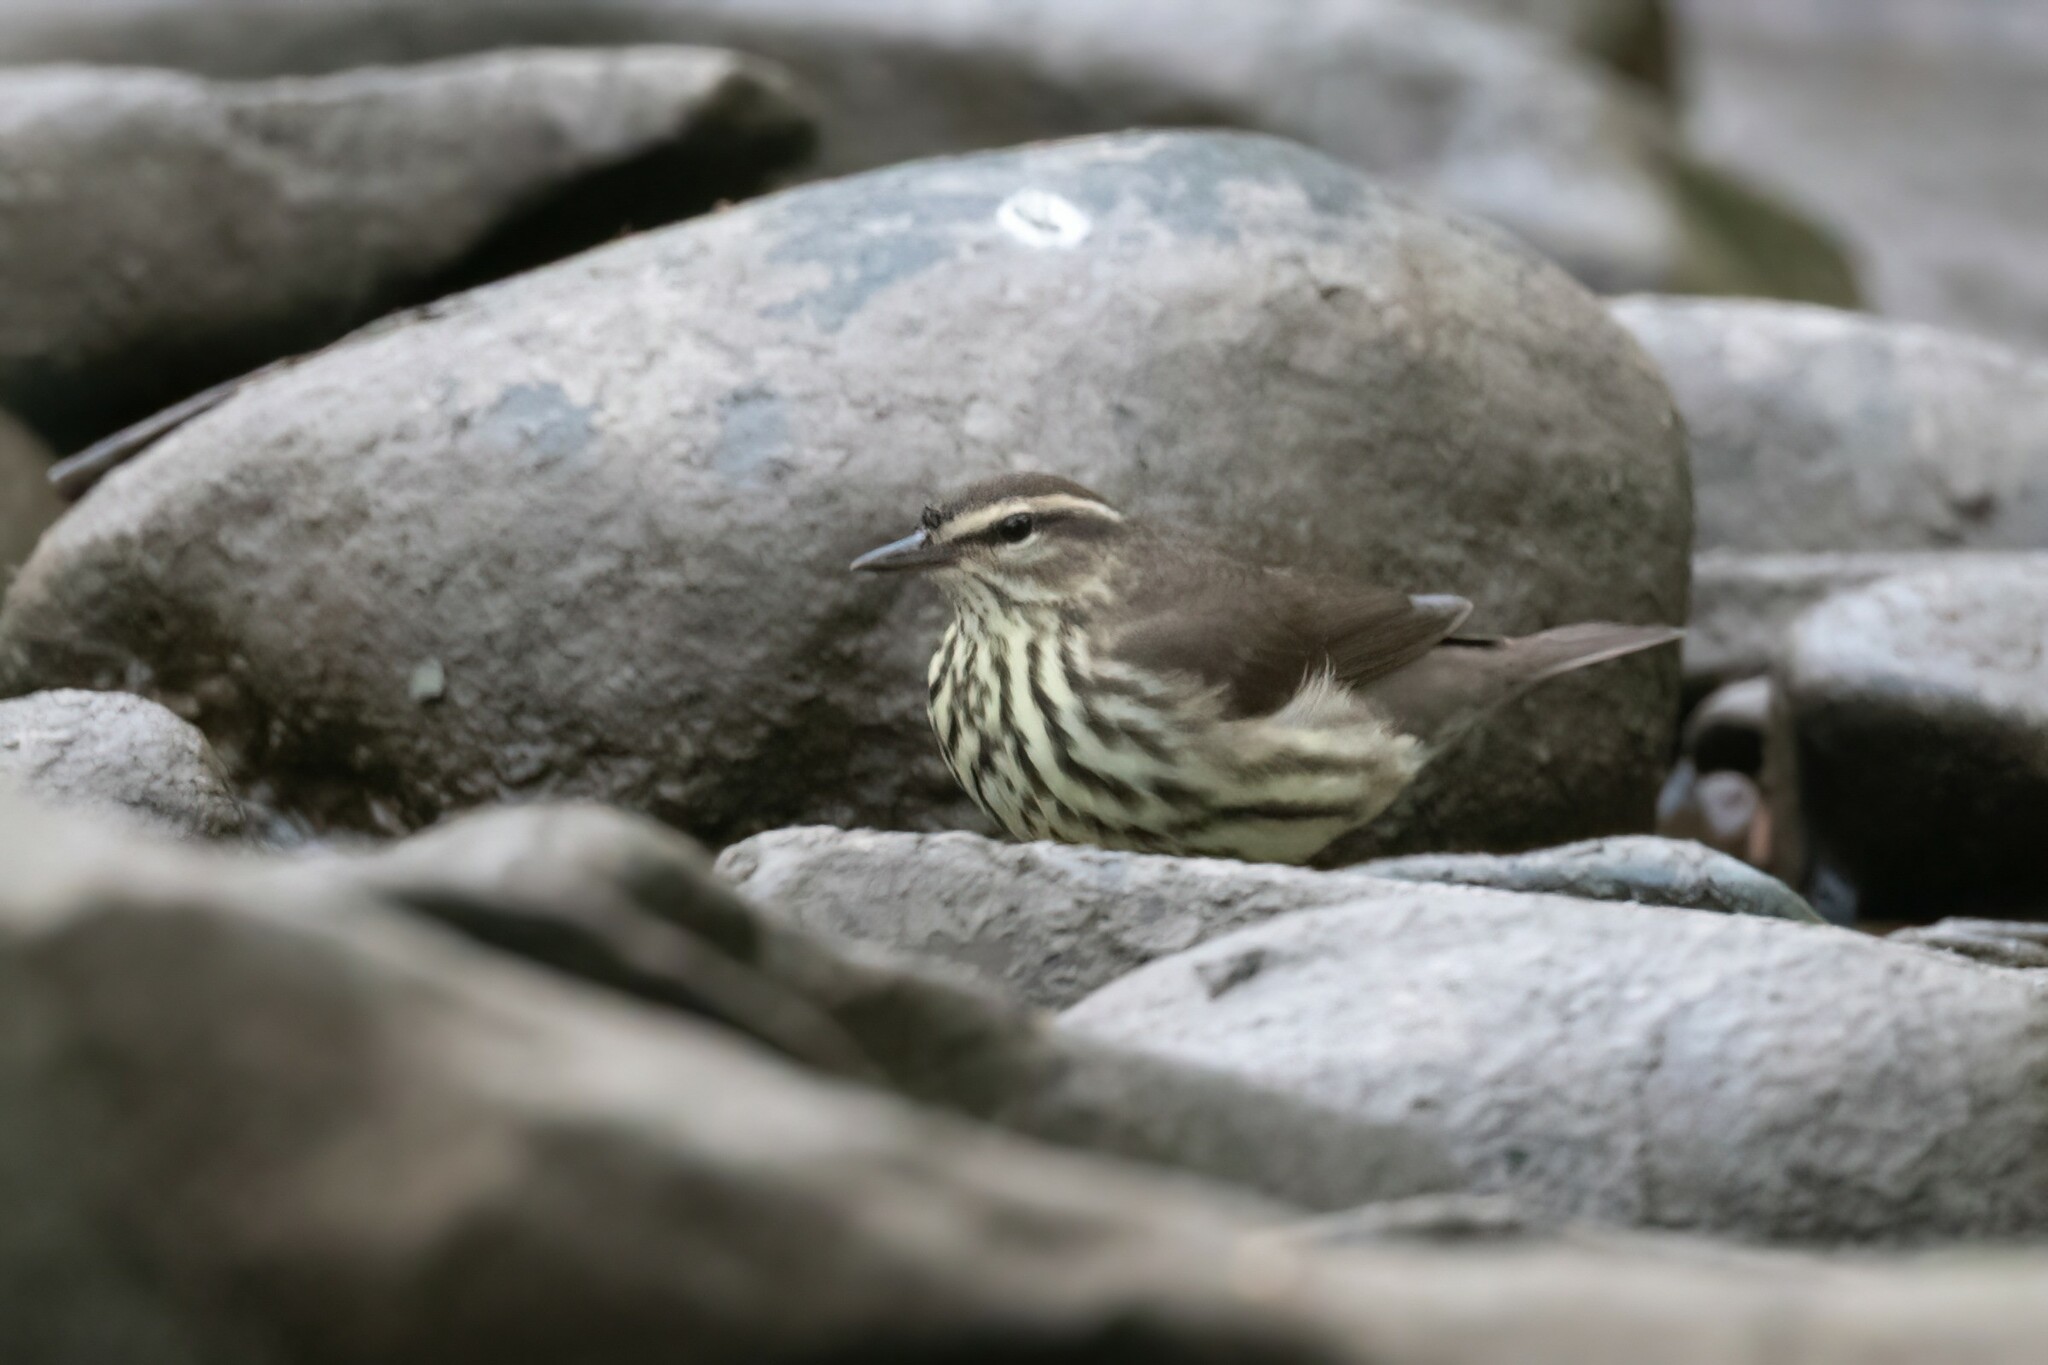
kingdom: Animalia
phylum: Chordata
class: Aves
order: Passeriformes
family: Parulidae
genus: Parkesia
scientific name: Parkesia noveboracensis
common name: Northern waterthrush
